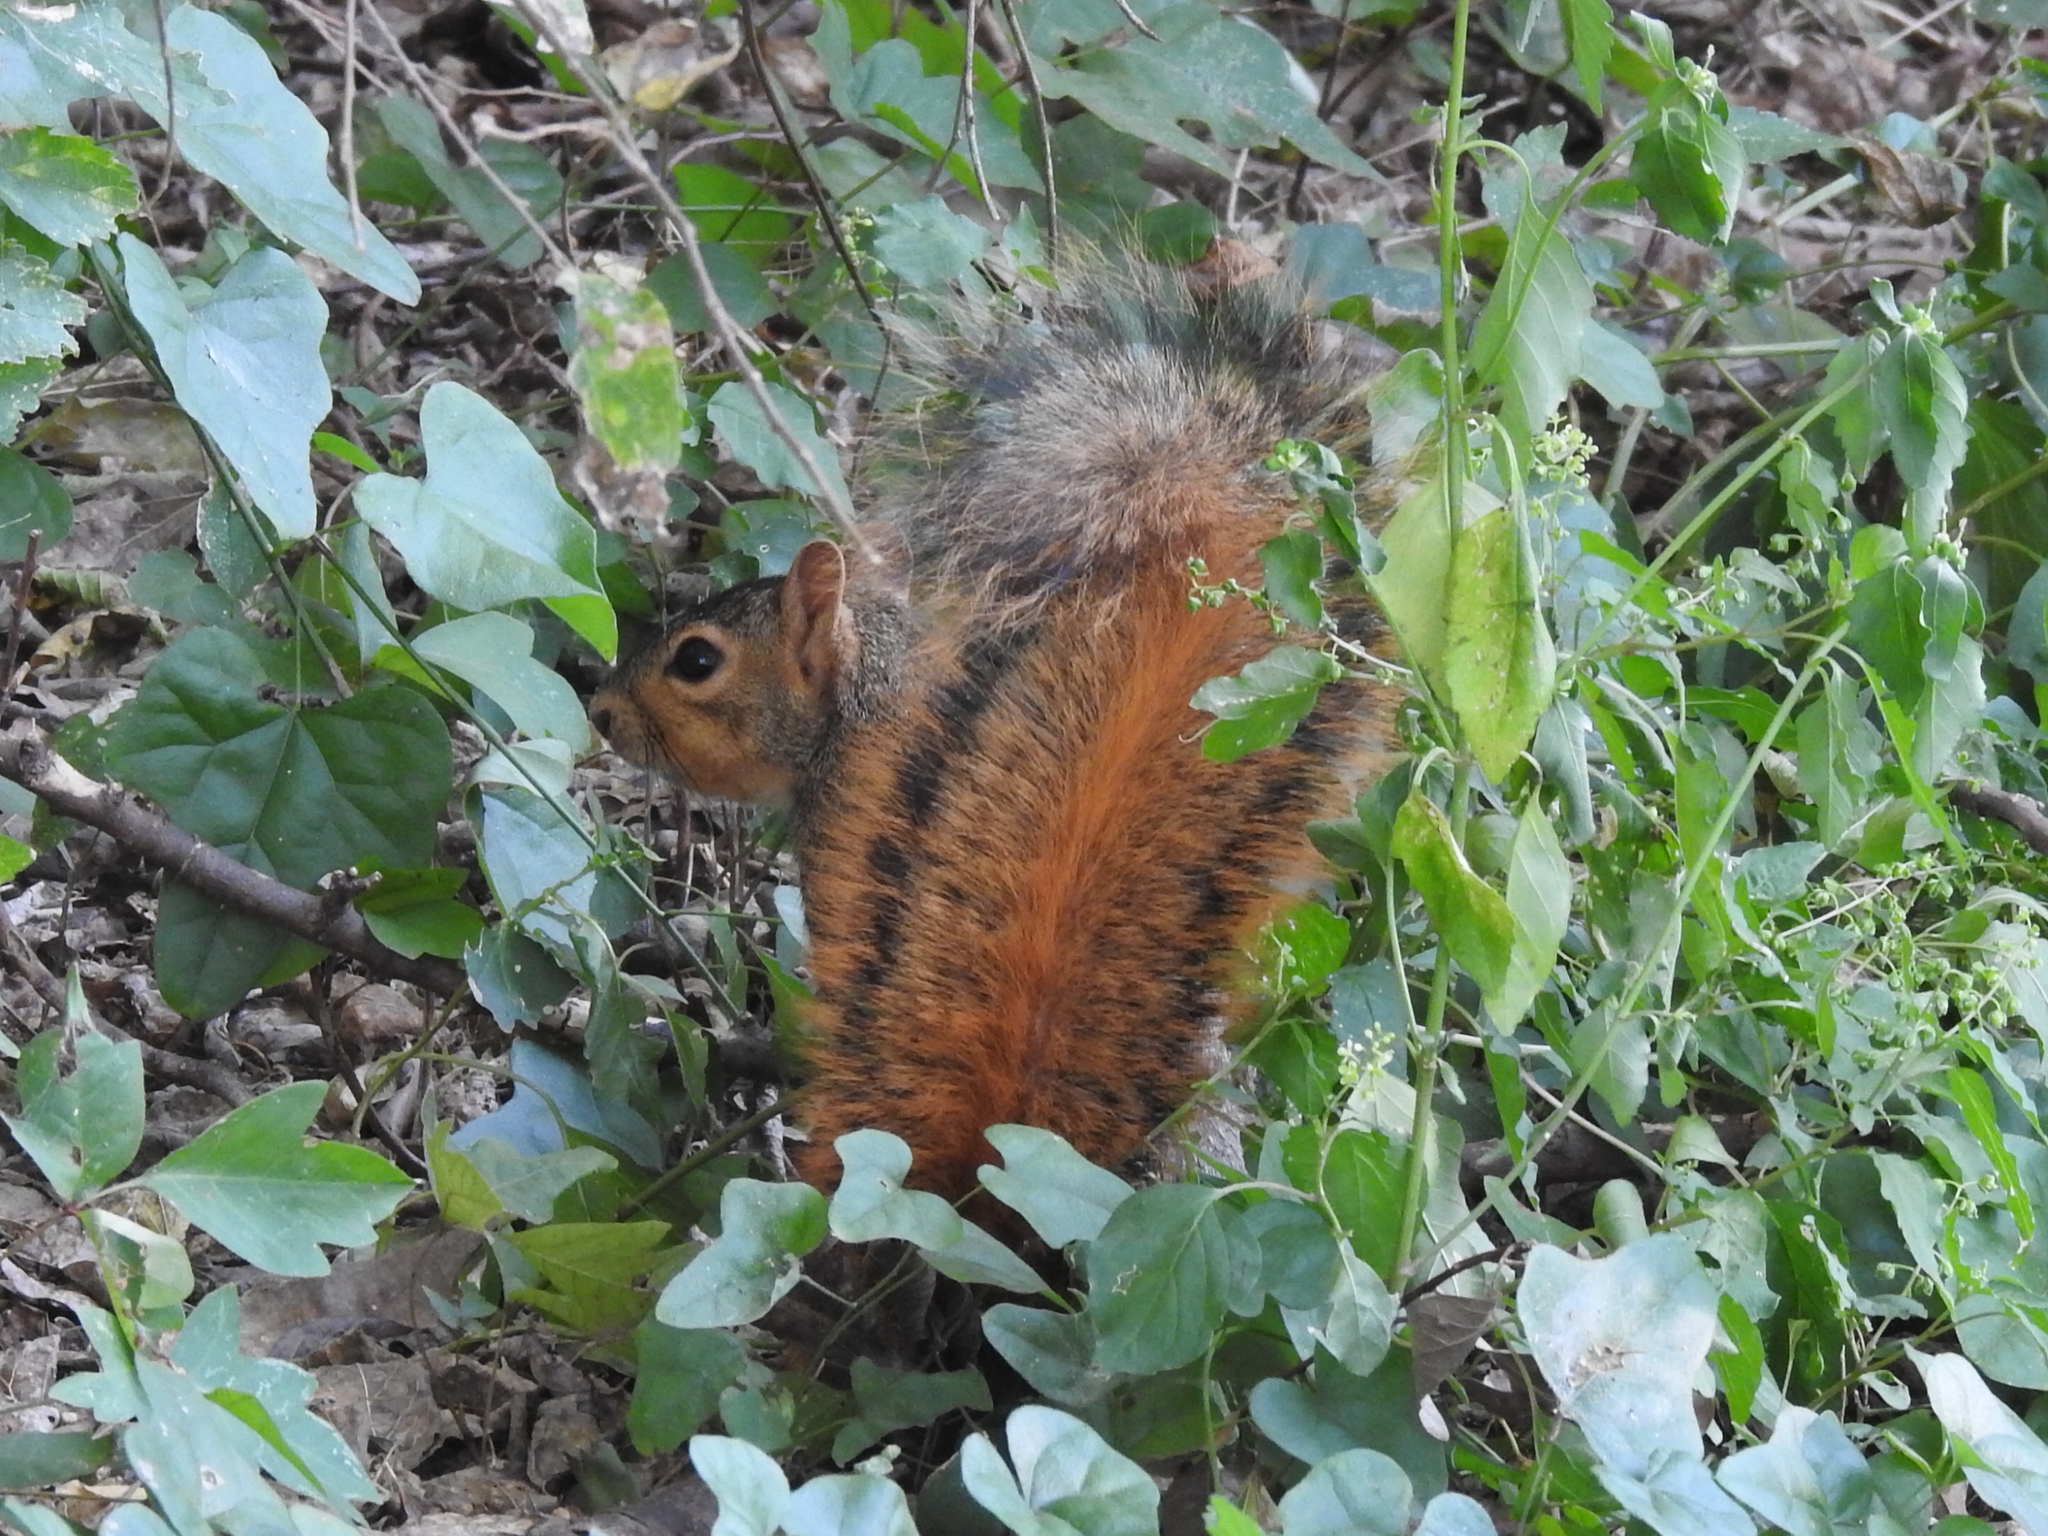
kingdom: Animalia
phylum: Chordata
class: Mammalia
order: Rodentia
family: Sciuridae
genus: Sciurus
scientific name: Sciurus niger
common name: Fox squirrel
